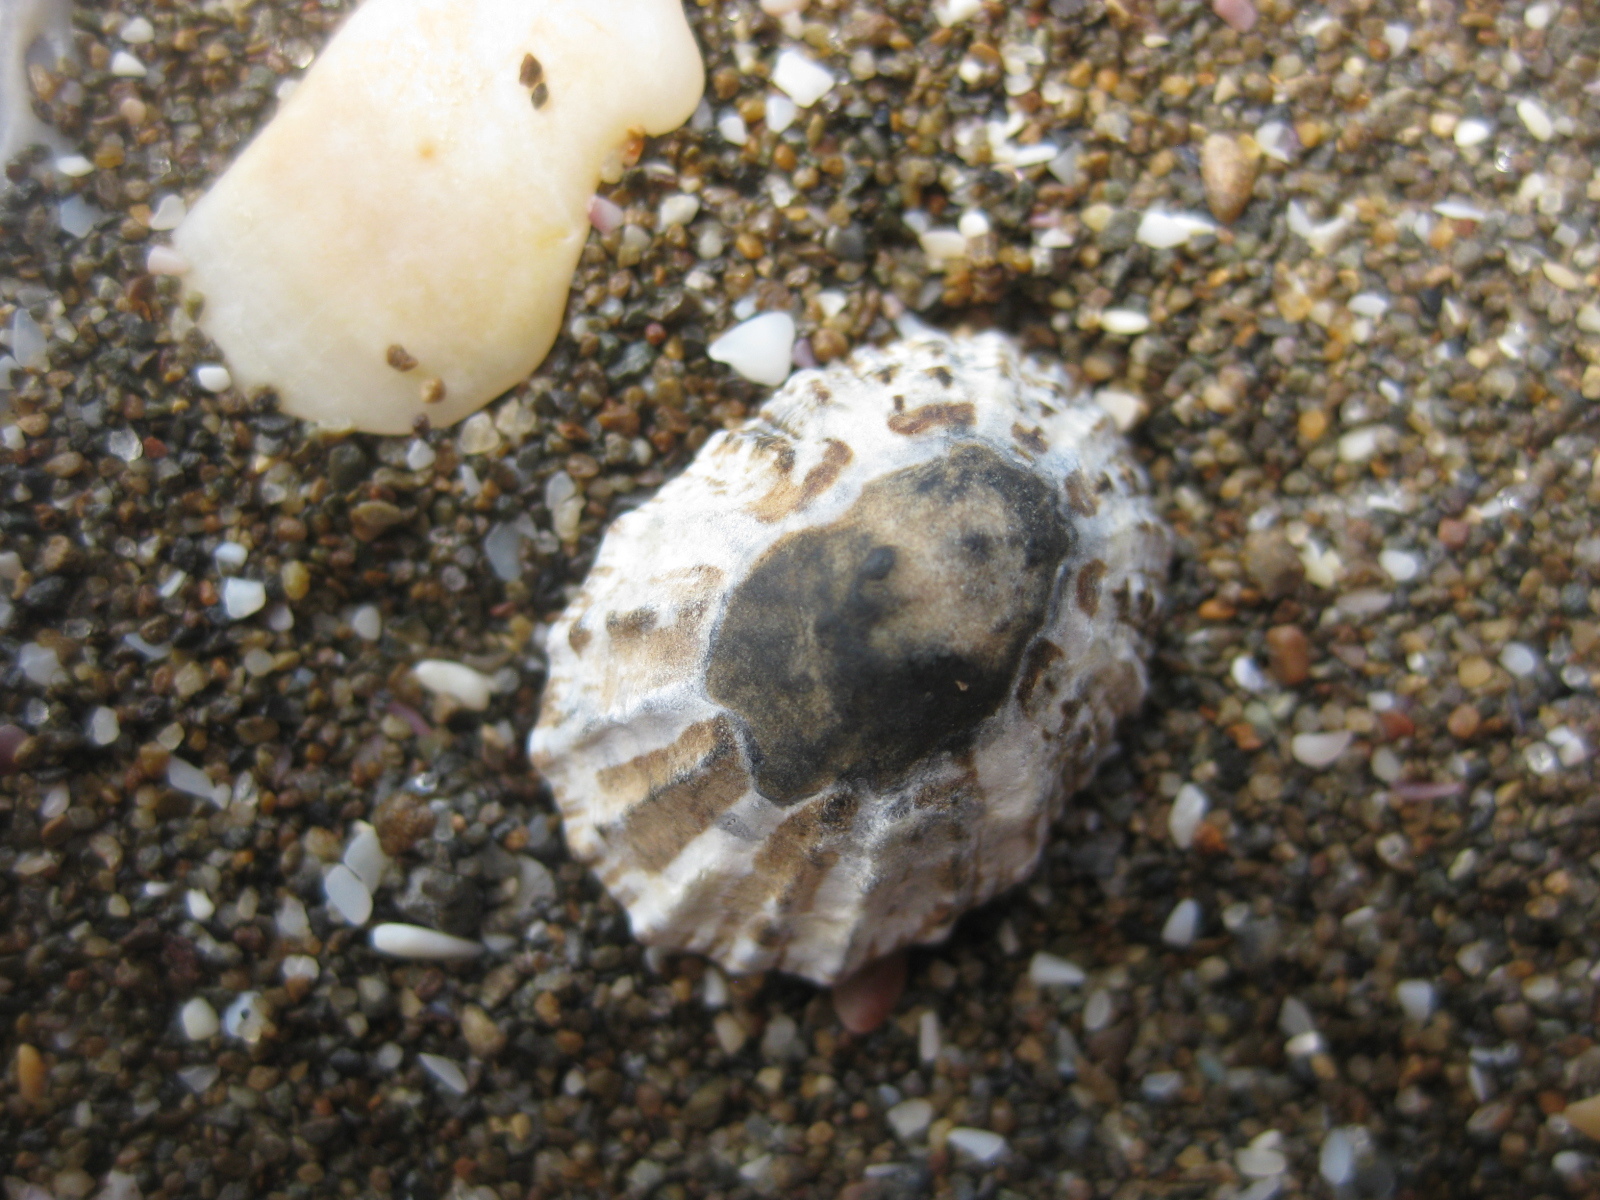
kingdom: Animalia
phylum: Mollusca
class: Gastropoda
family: Nacellidae
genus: Cellana
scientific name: Cellana ornata
